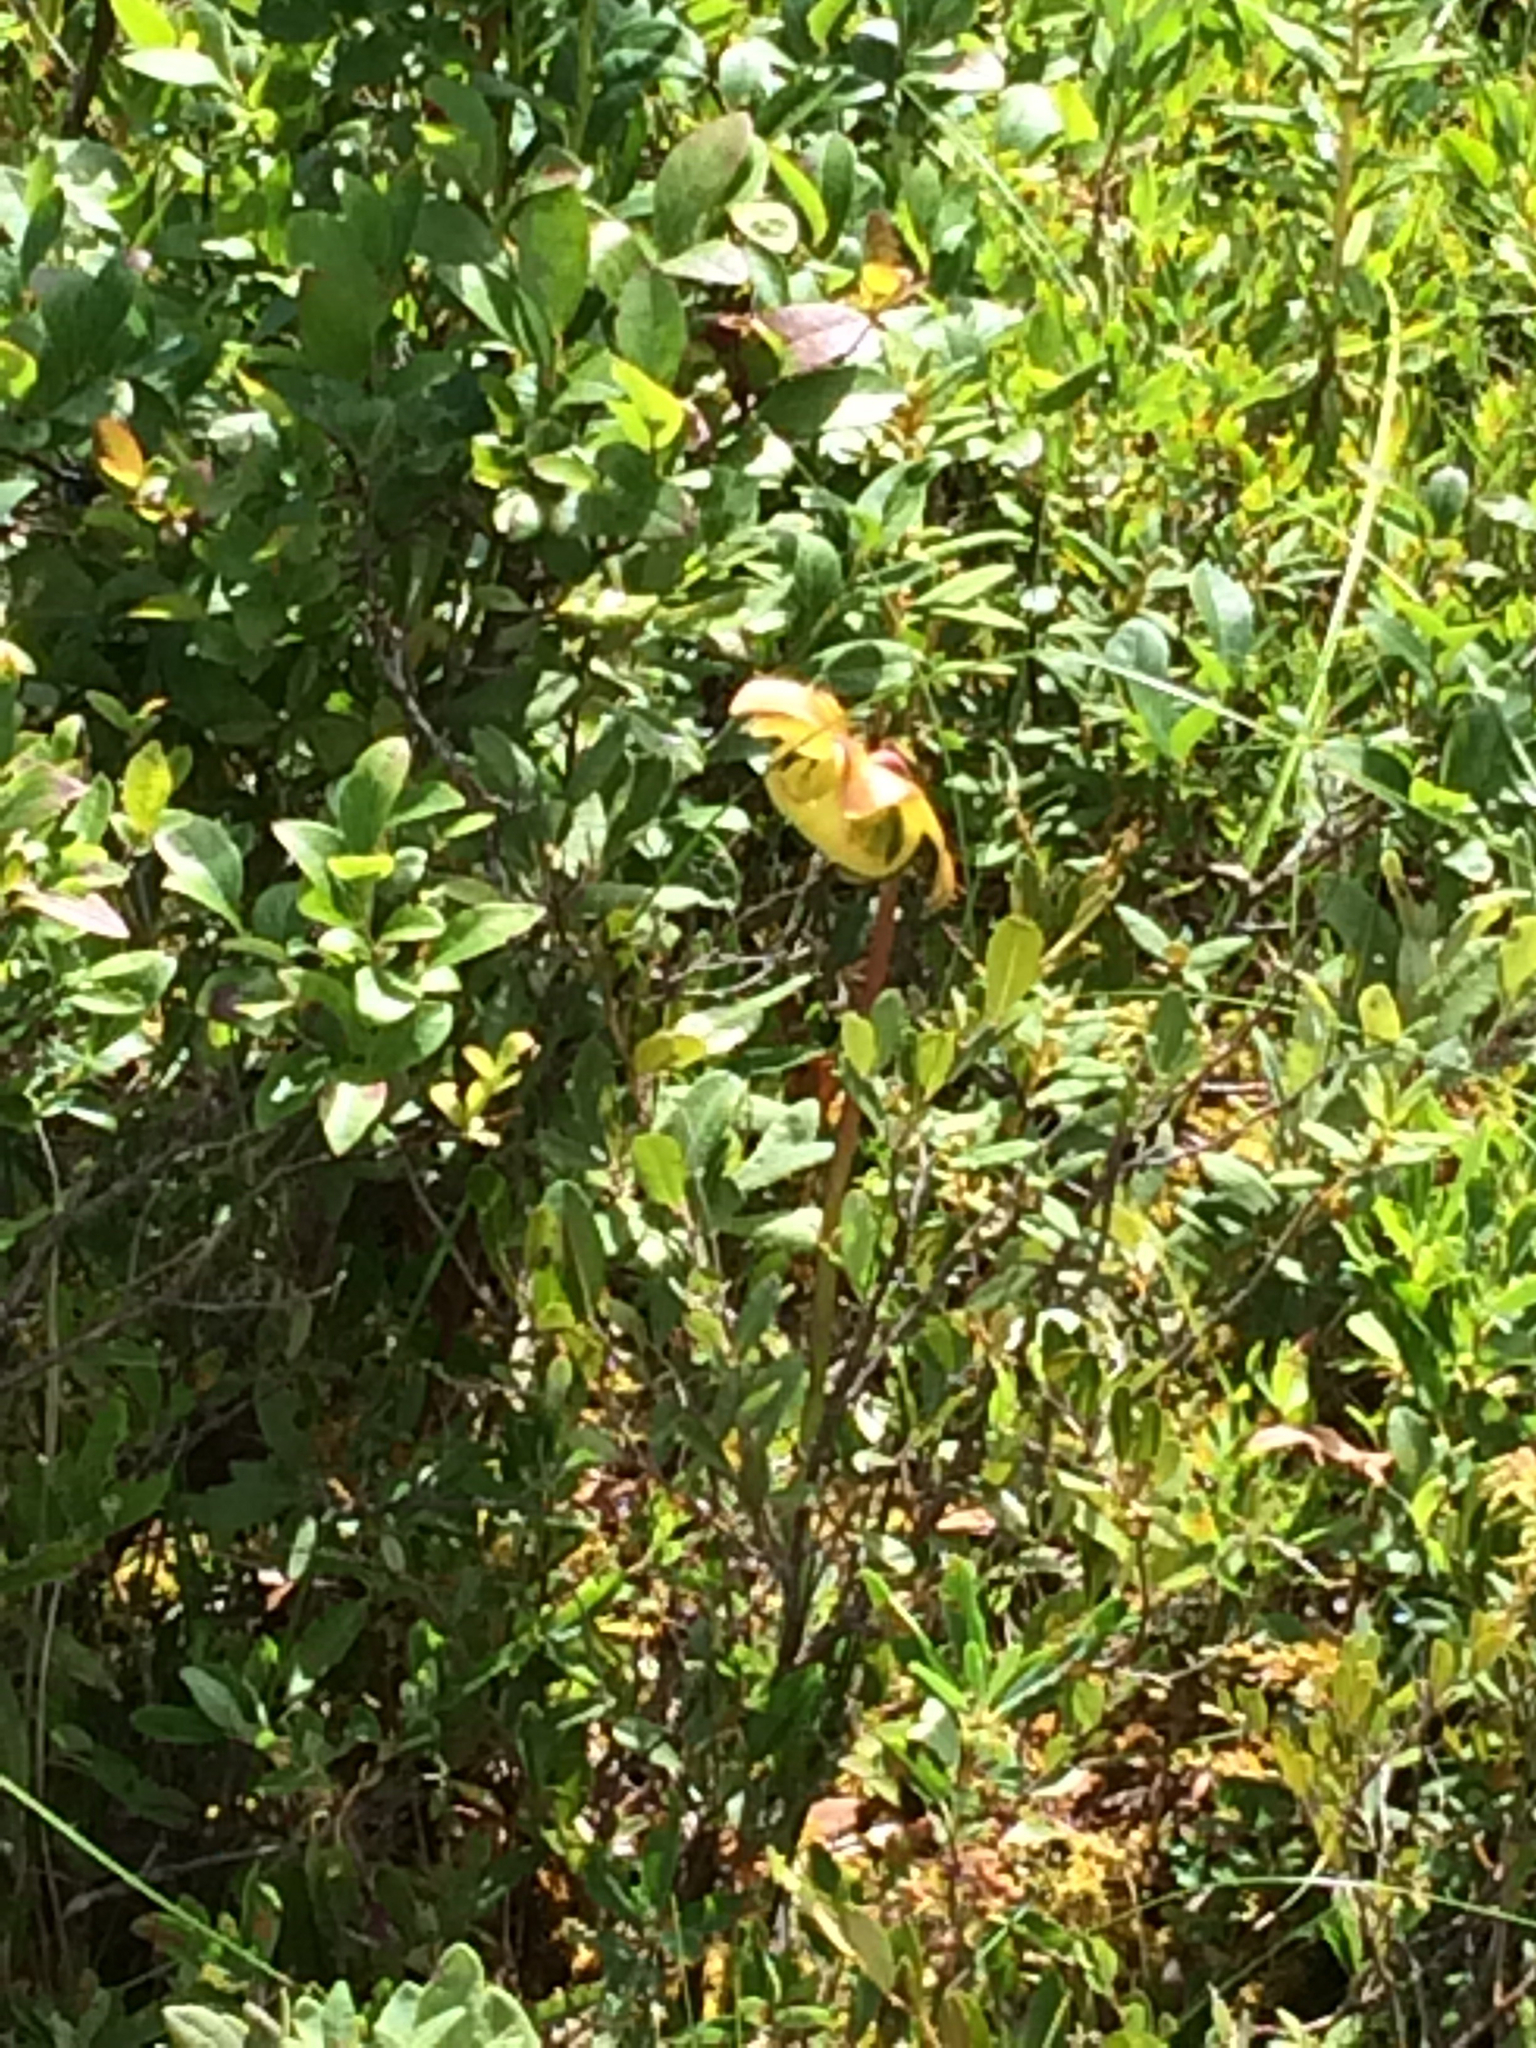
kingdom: Plantae
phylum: Tracheophyta
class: Magnoliopsida
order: Ericales
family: Sarraceniaceae
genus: Sarracenia
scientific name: Sarracenia purpurea
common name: Pitcherplant
